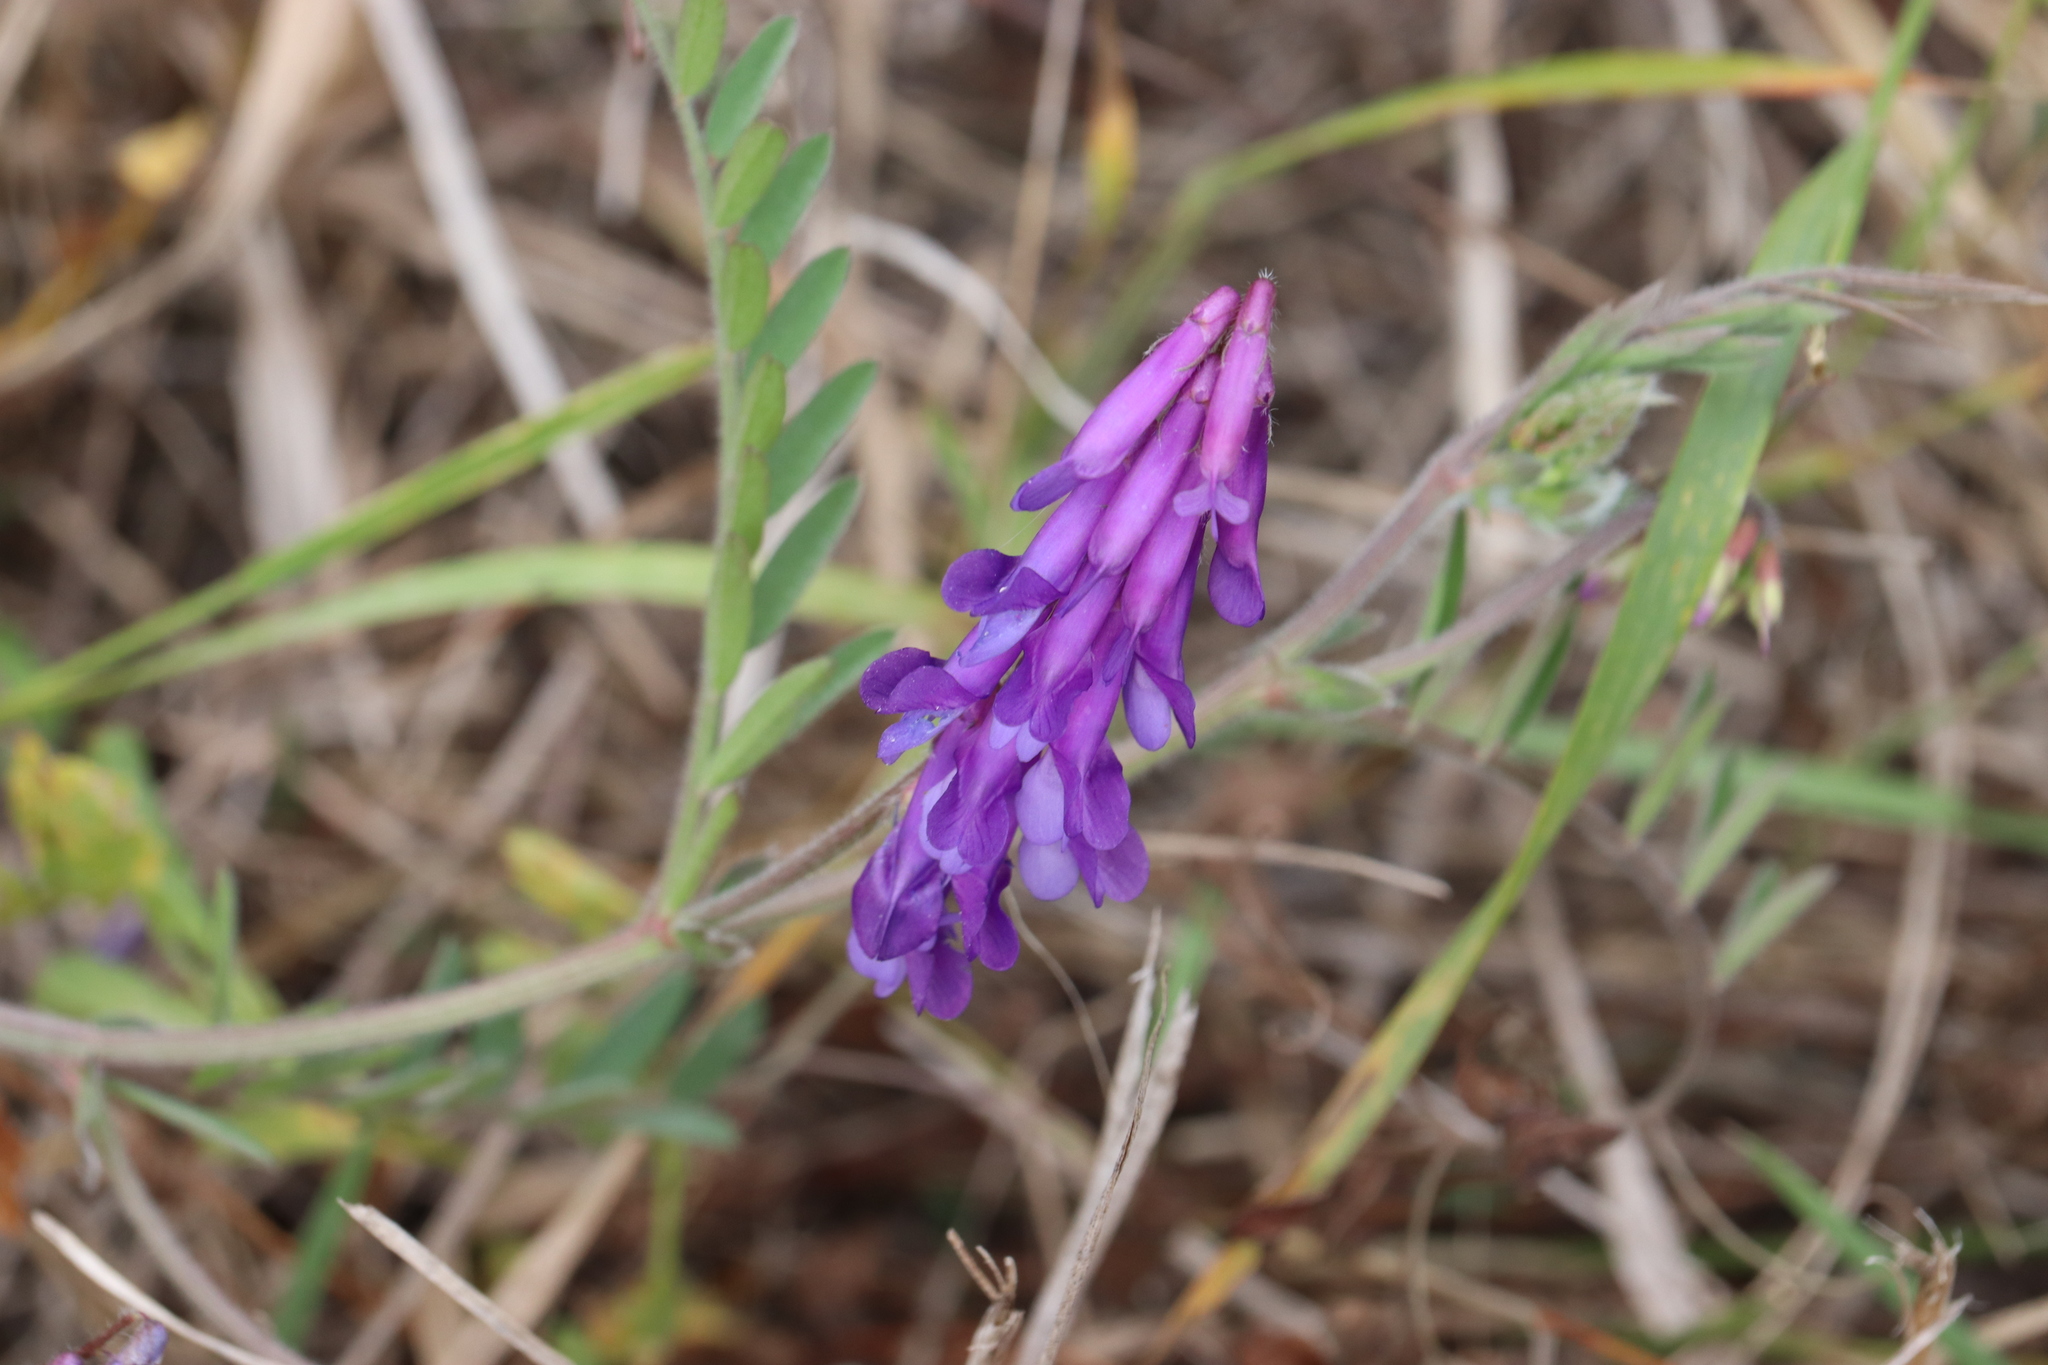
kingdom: Plantae
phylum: Tracheophyta
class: Magnoliopsida
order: Fabales
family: Fabaceae
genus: Vicia
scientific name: Vicia villosa
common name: Fodder vetch
